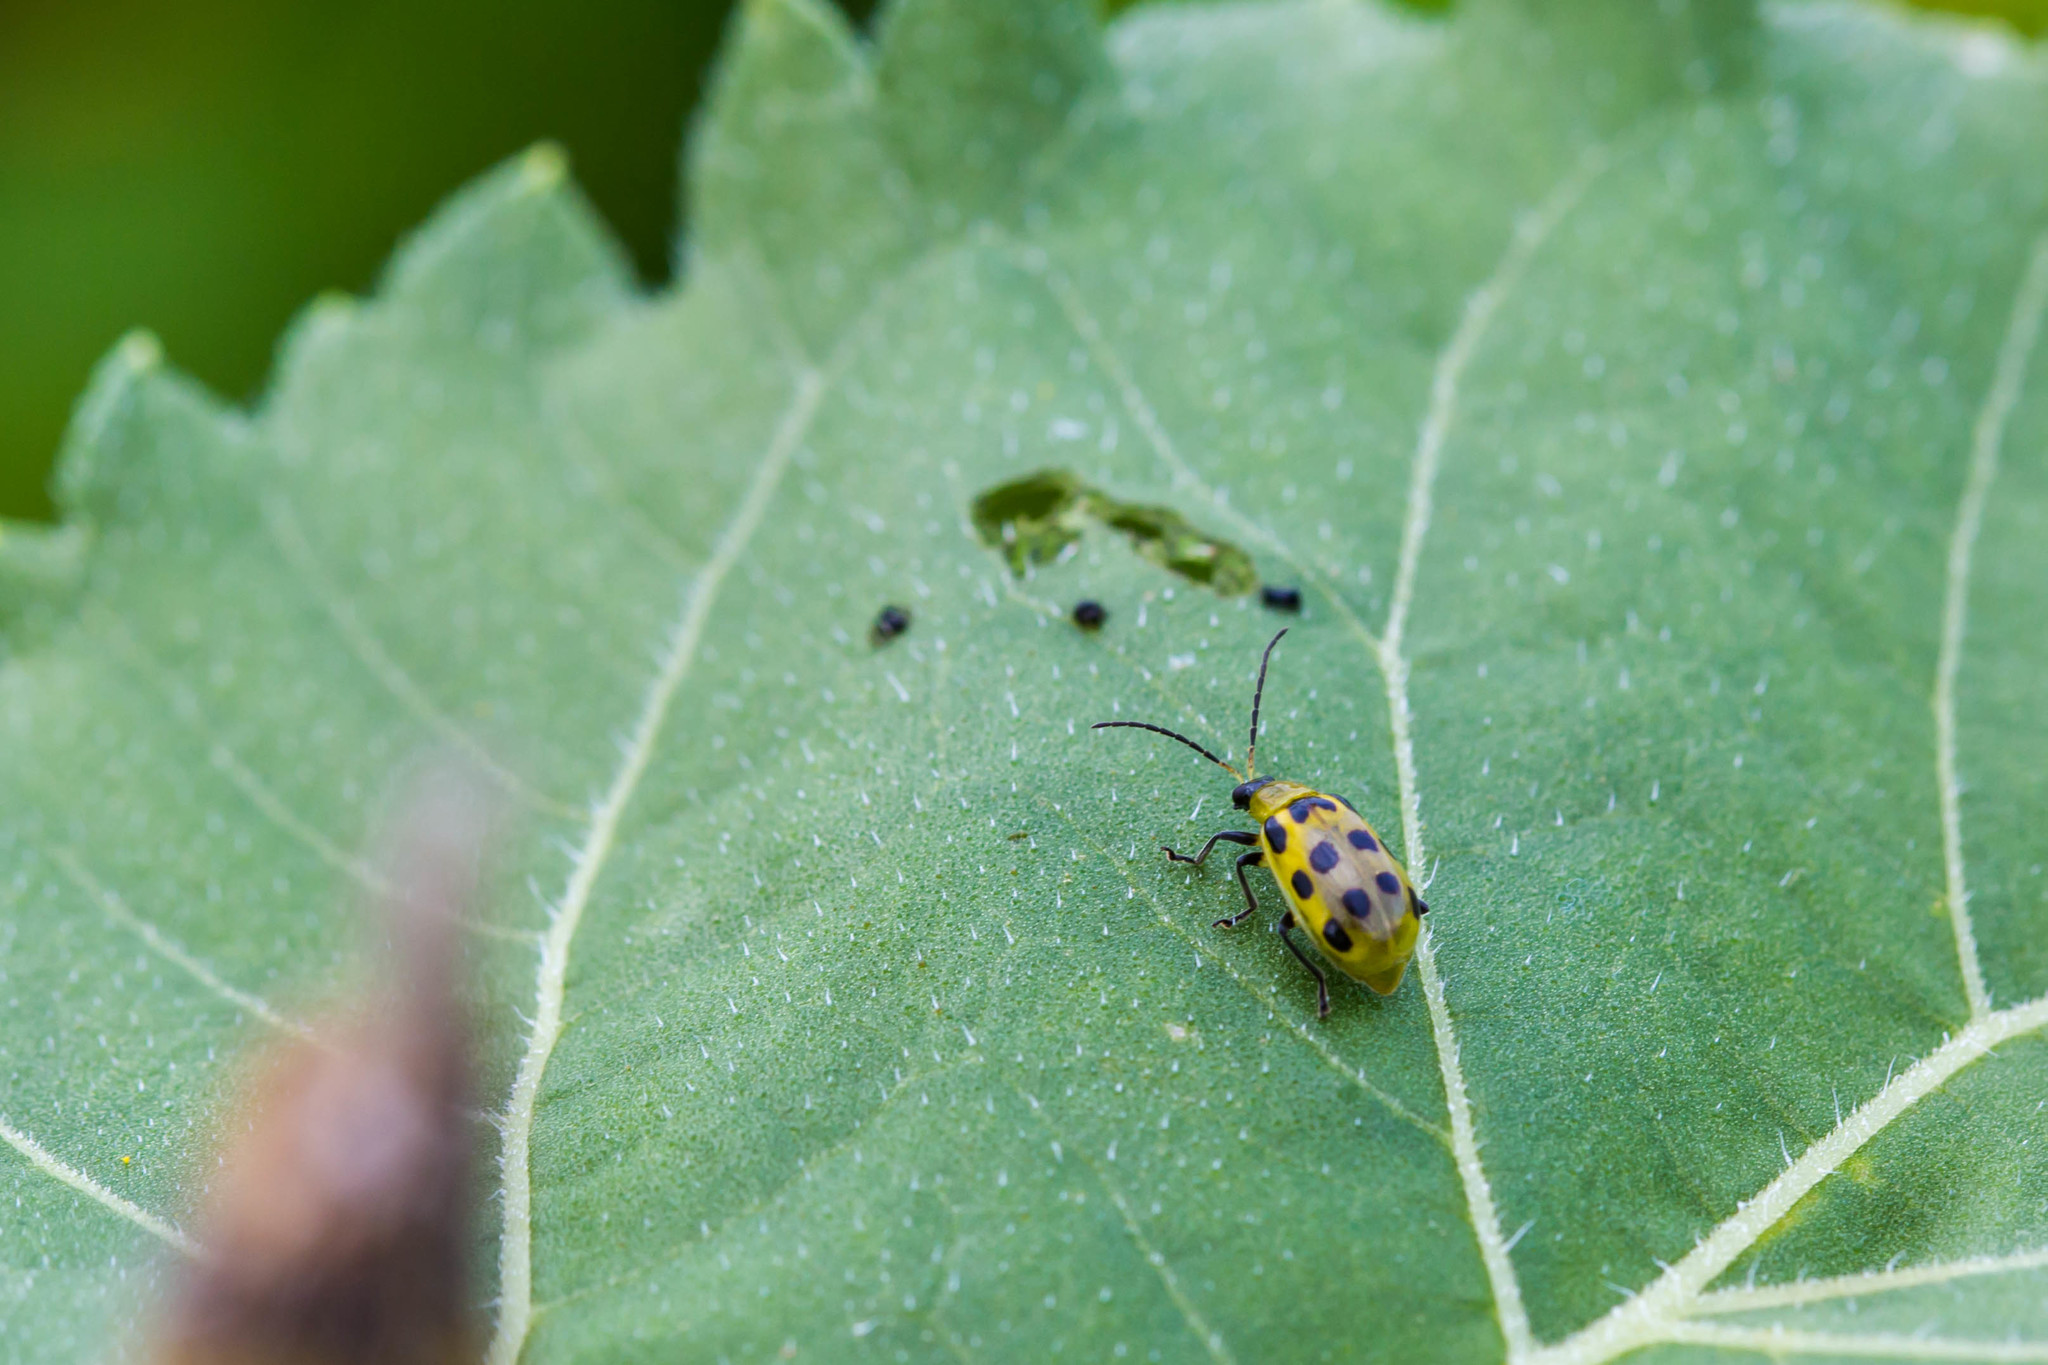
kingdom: Animalia
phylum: Arthropoda
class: Insecta
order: Coleoptera
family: Chrysomelidae
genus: Diabrotica
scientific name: Diabrotica undecimpunctata
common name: Spotted cucumber beetle
